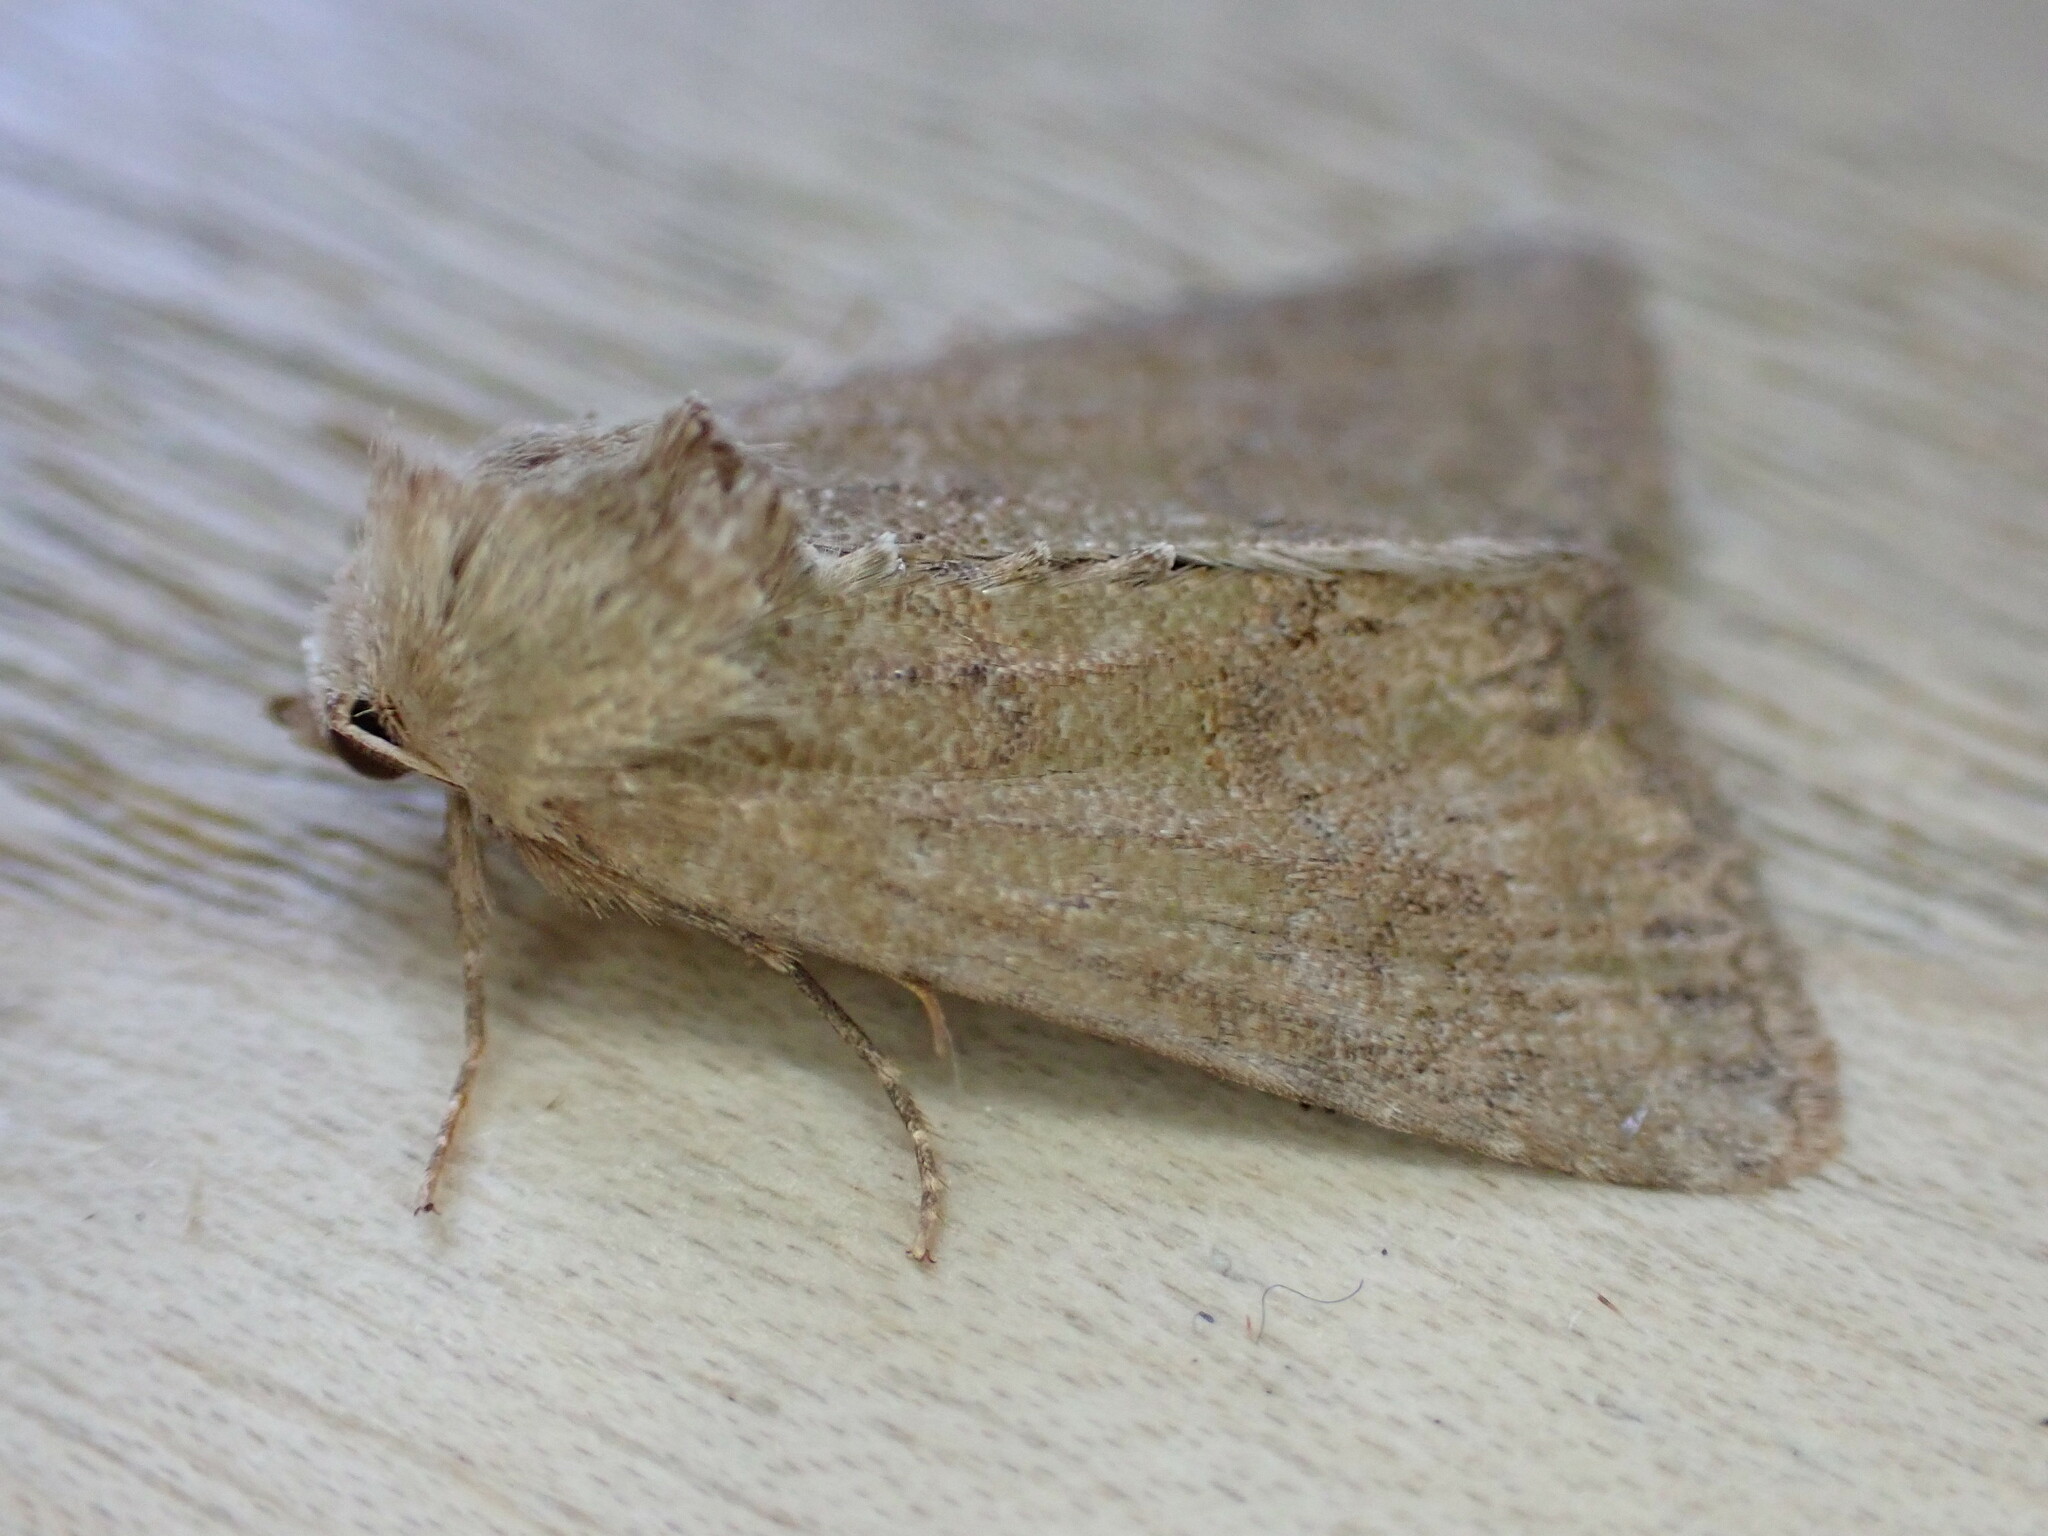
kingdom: Animalia
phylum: Arthropoda
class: Insecta
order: Lepidoptera
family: Noctuidae
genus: Mesoligia
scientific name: Mesoligia furuncula
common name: Cloaked minor
